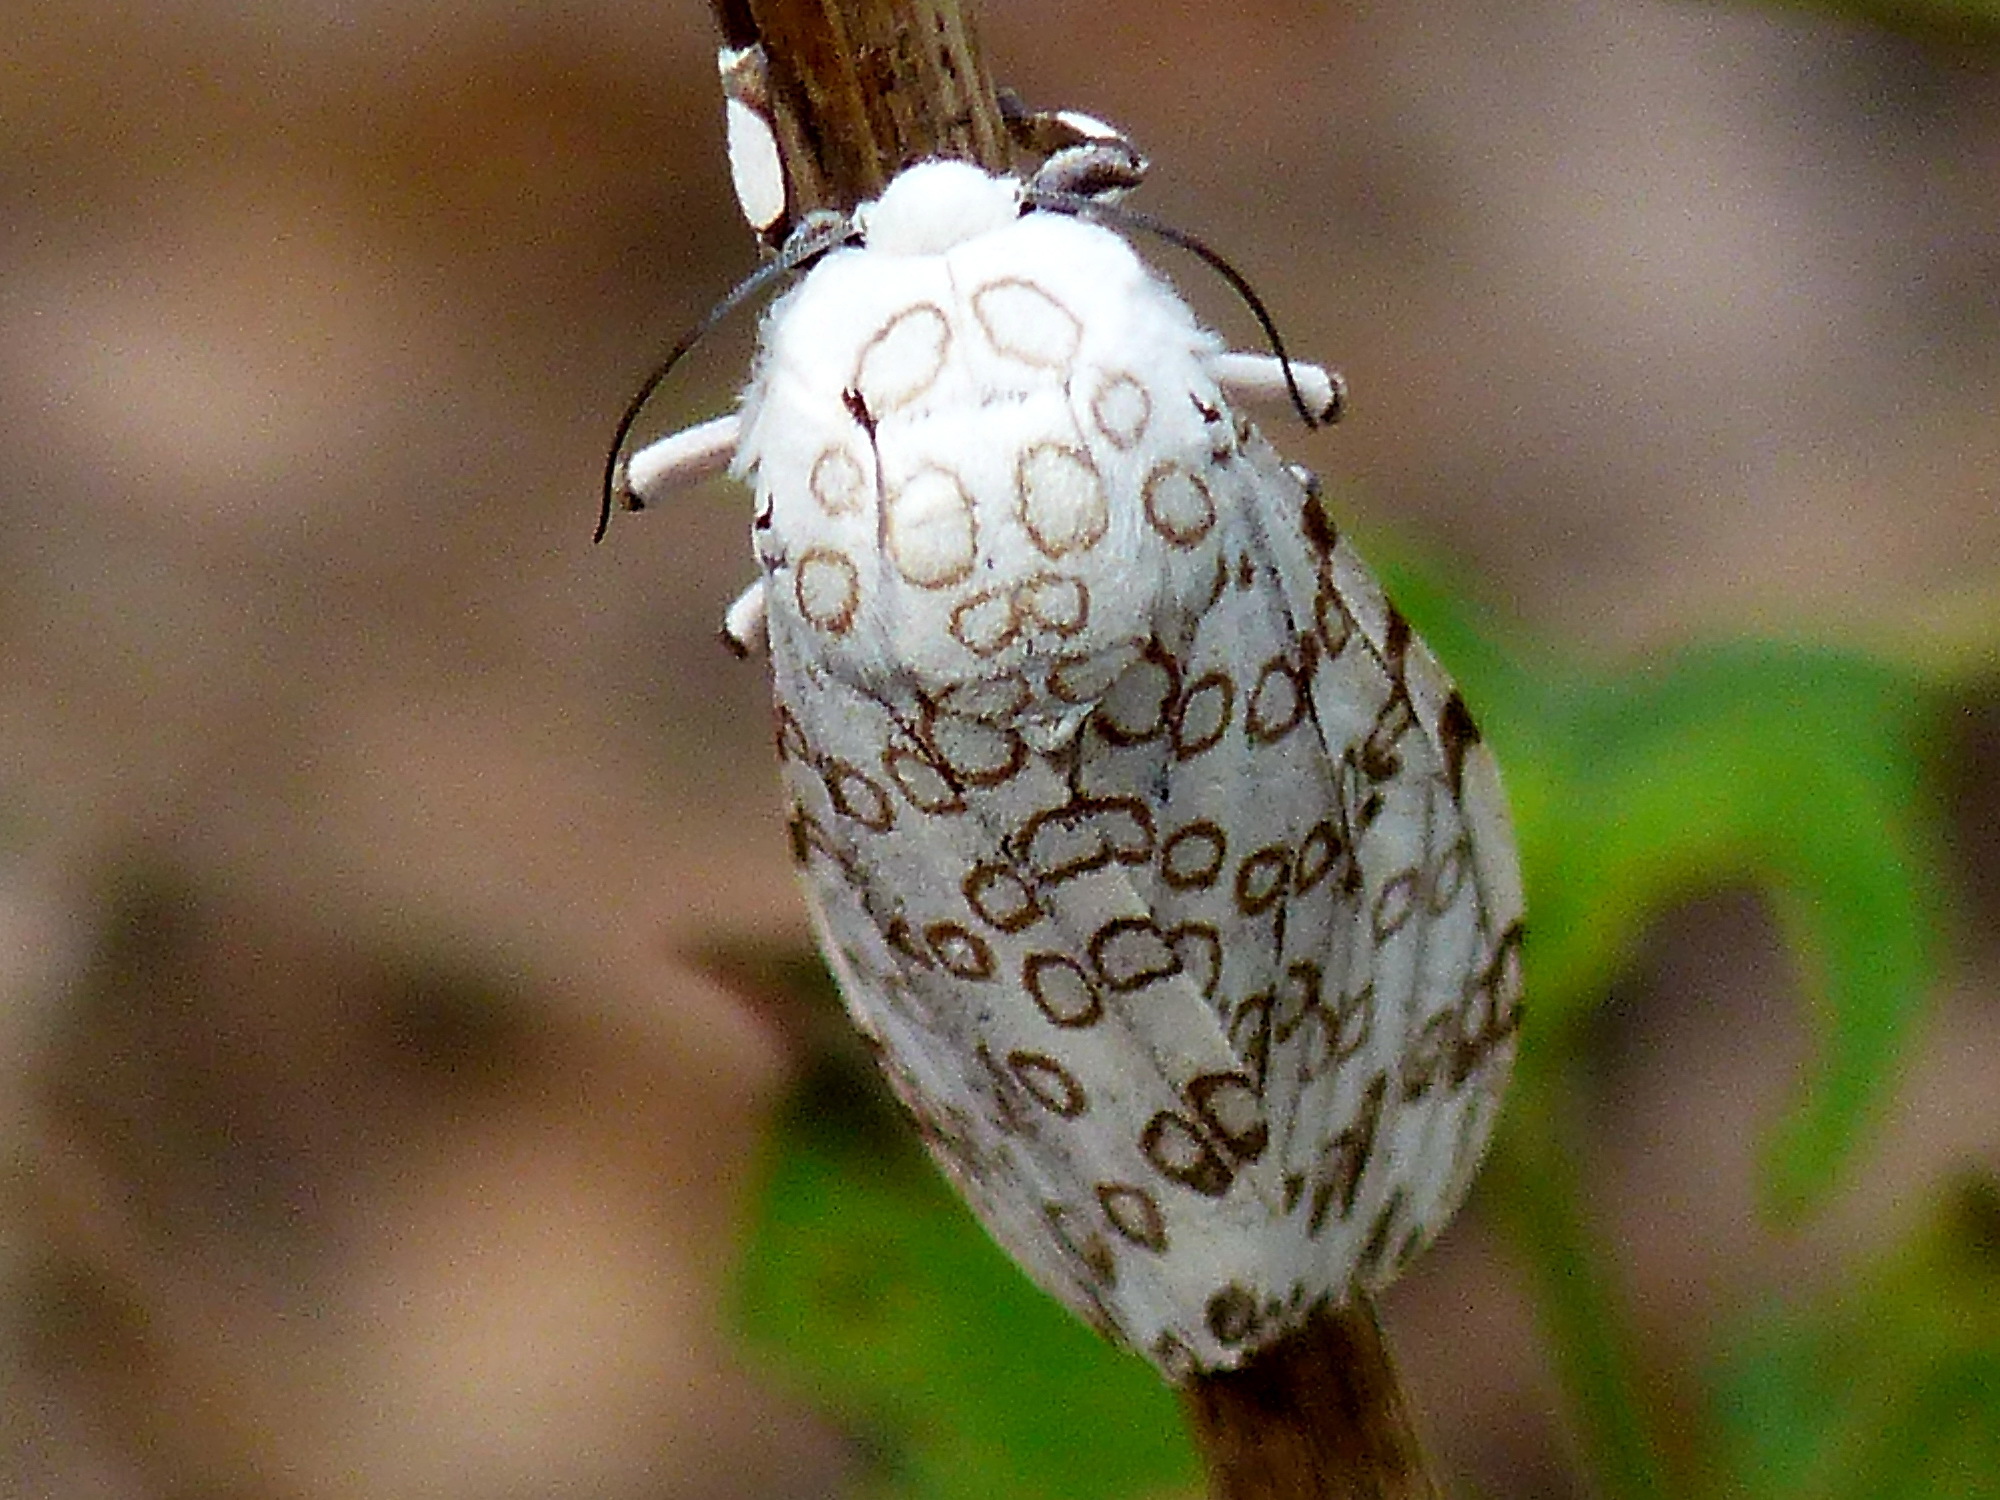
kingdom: Animalia
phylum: Arthropoda
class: Insecta
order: Lepidoptera
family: Erebidae
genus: Hypercompe
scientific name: Hypercompe caudata
